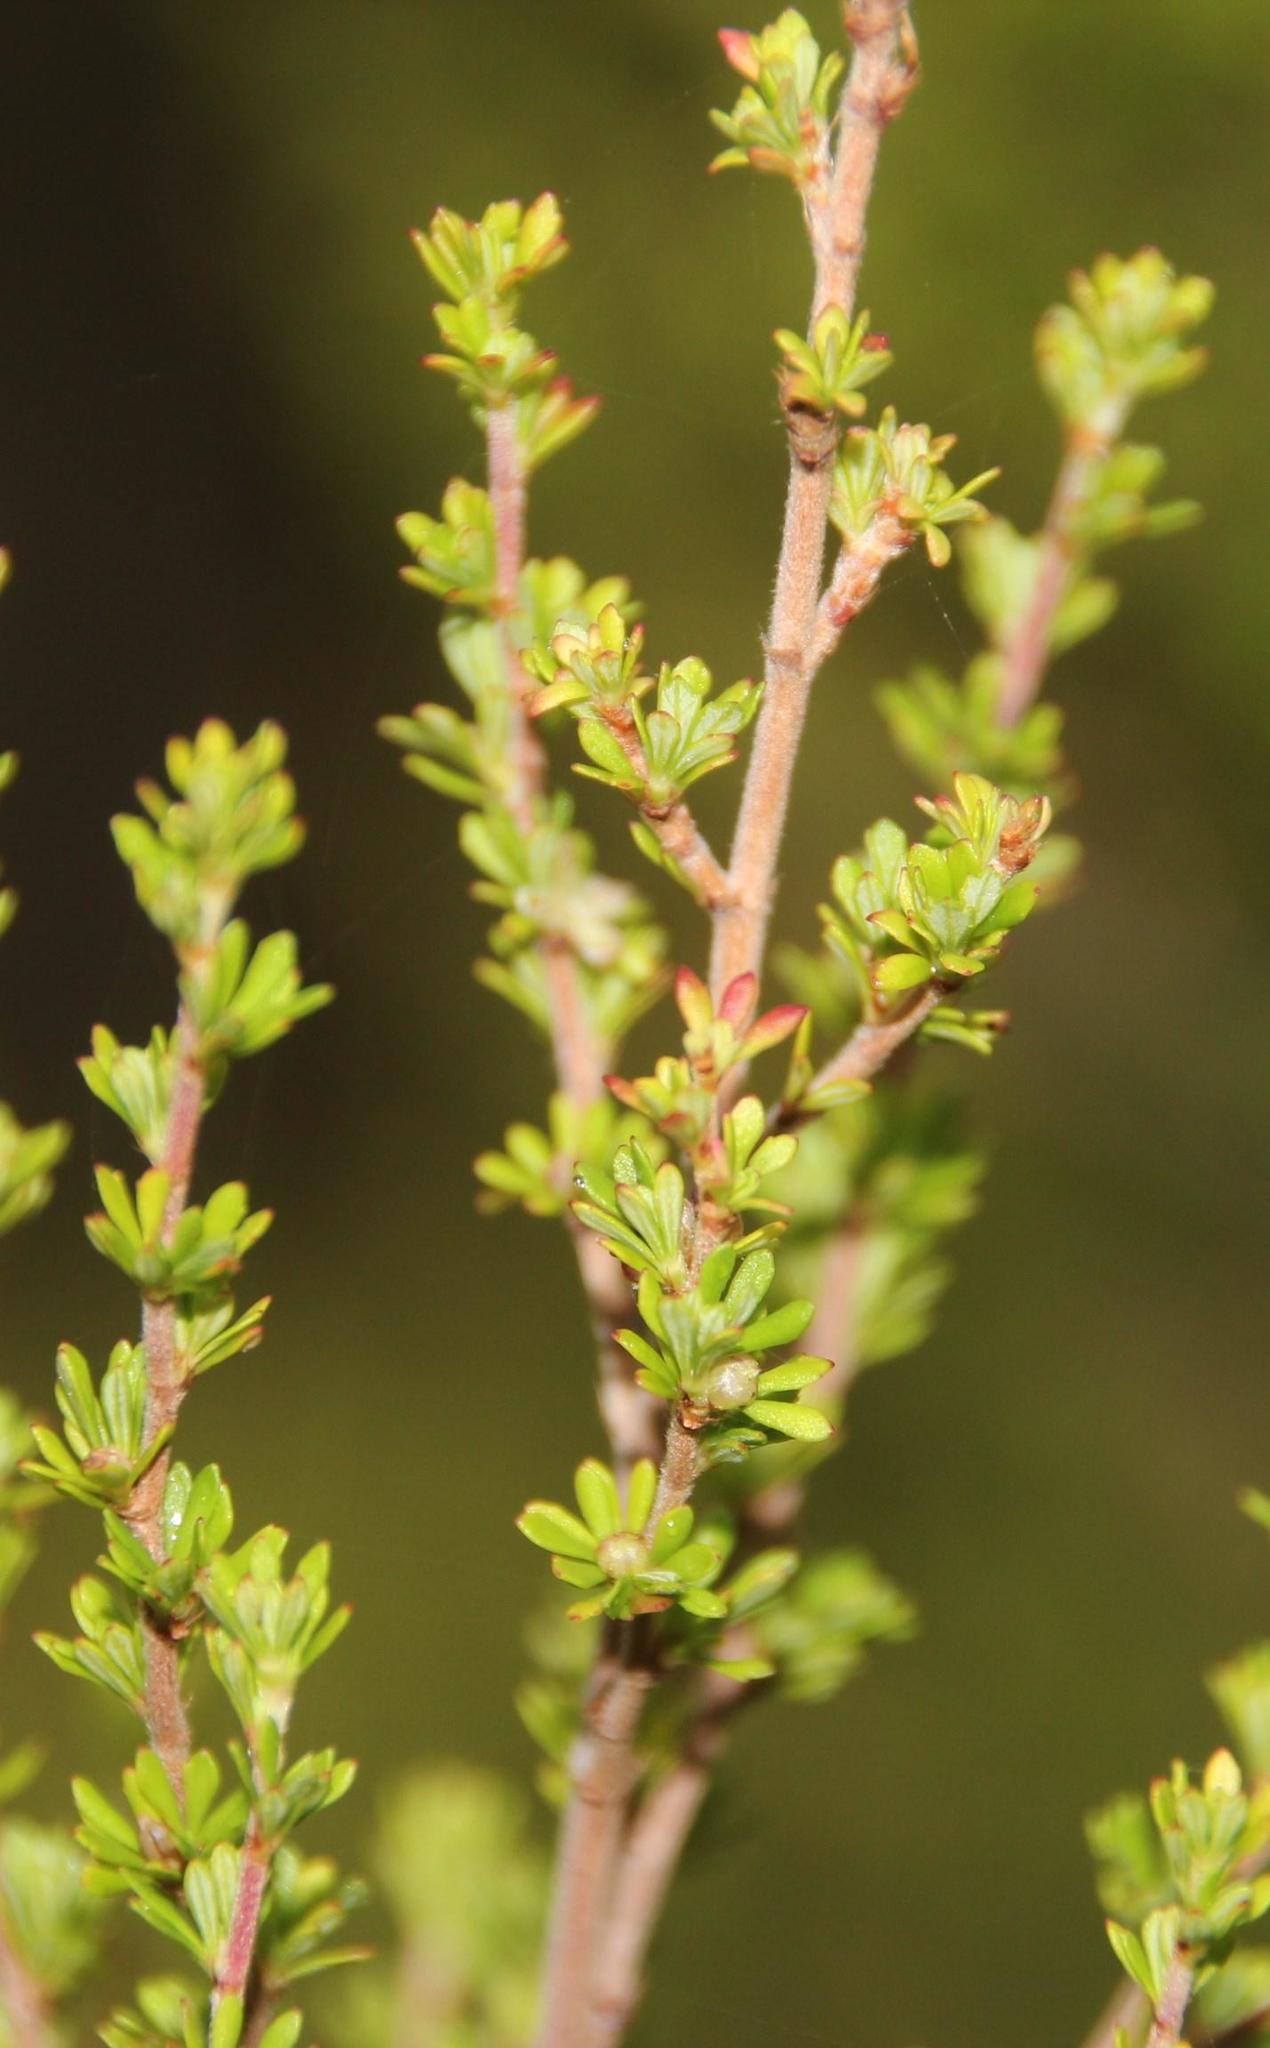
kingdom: Plantae
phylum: Tracheophyta
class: Magnoliopsida
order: Rosales
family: Rosaceae
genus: Cliffortia
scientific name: Cliffortia serpyllifolia
